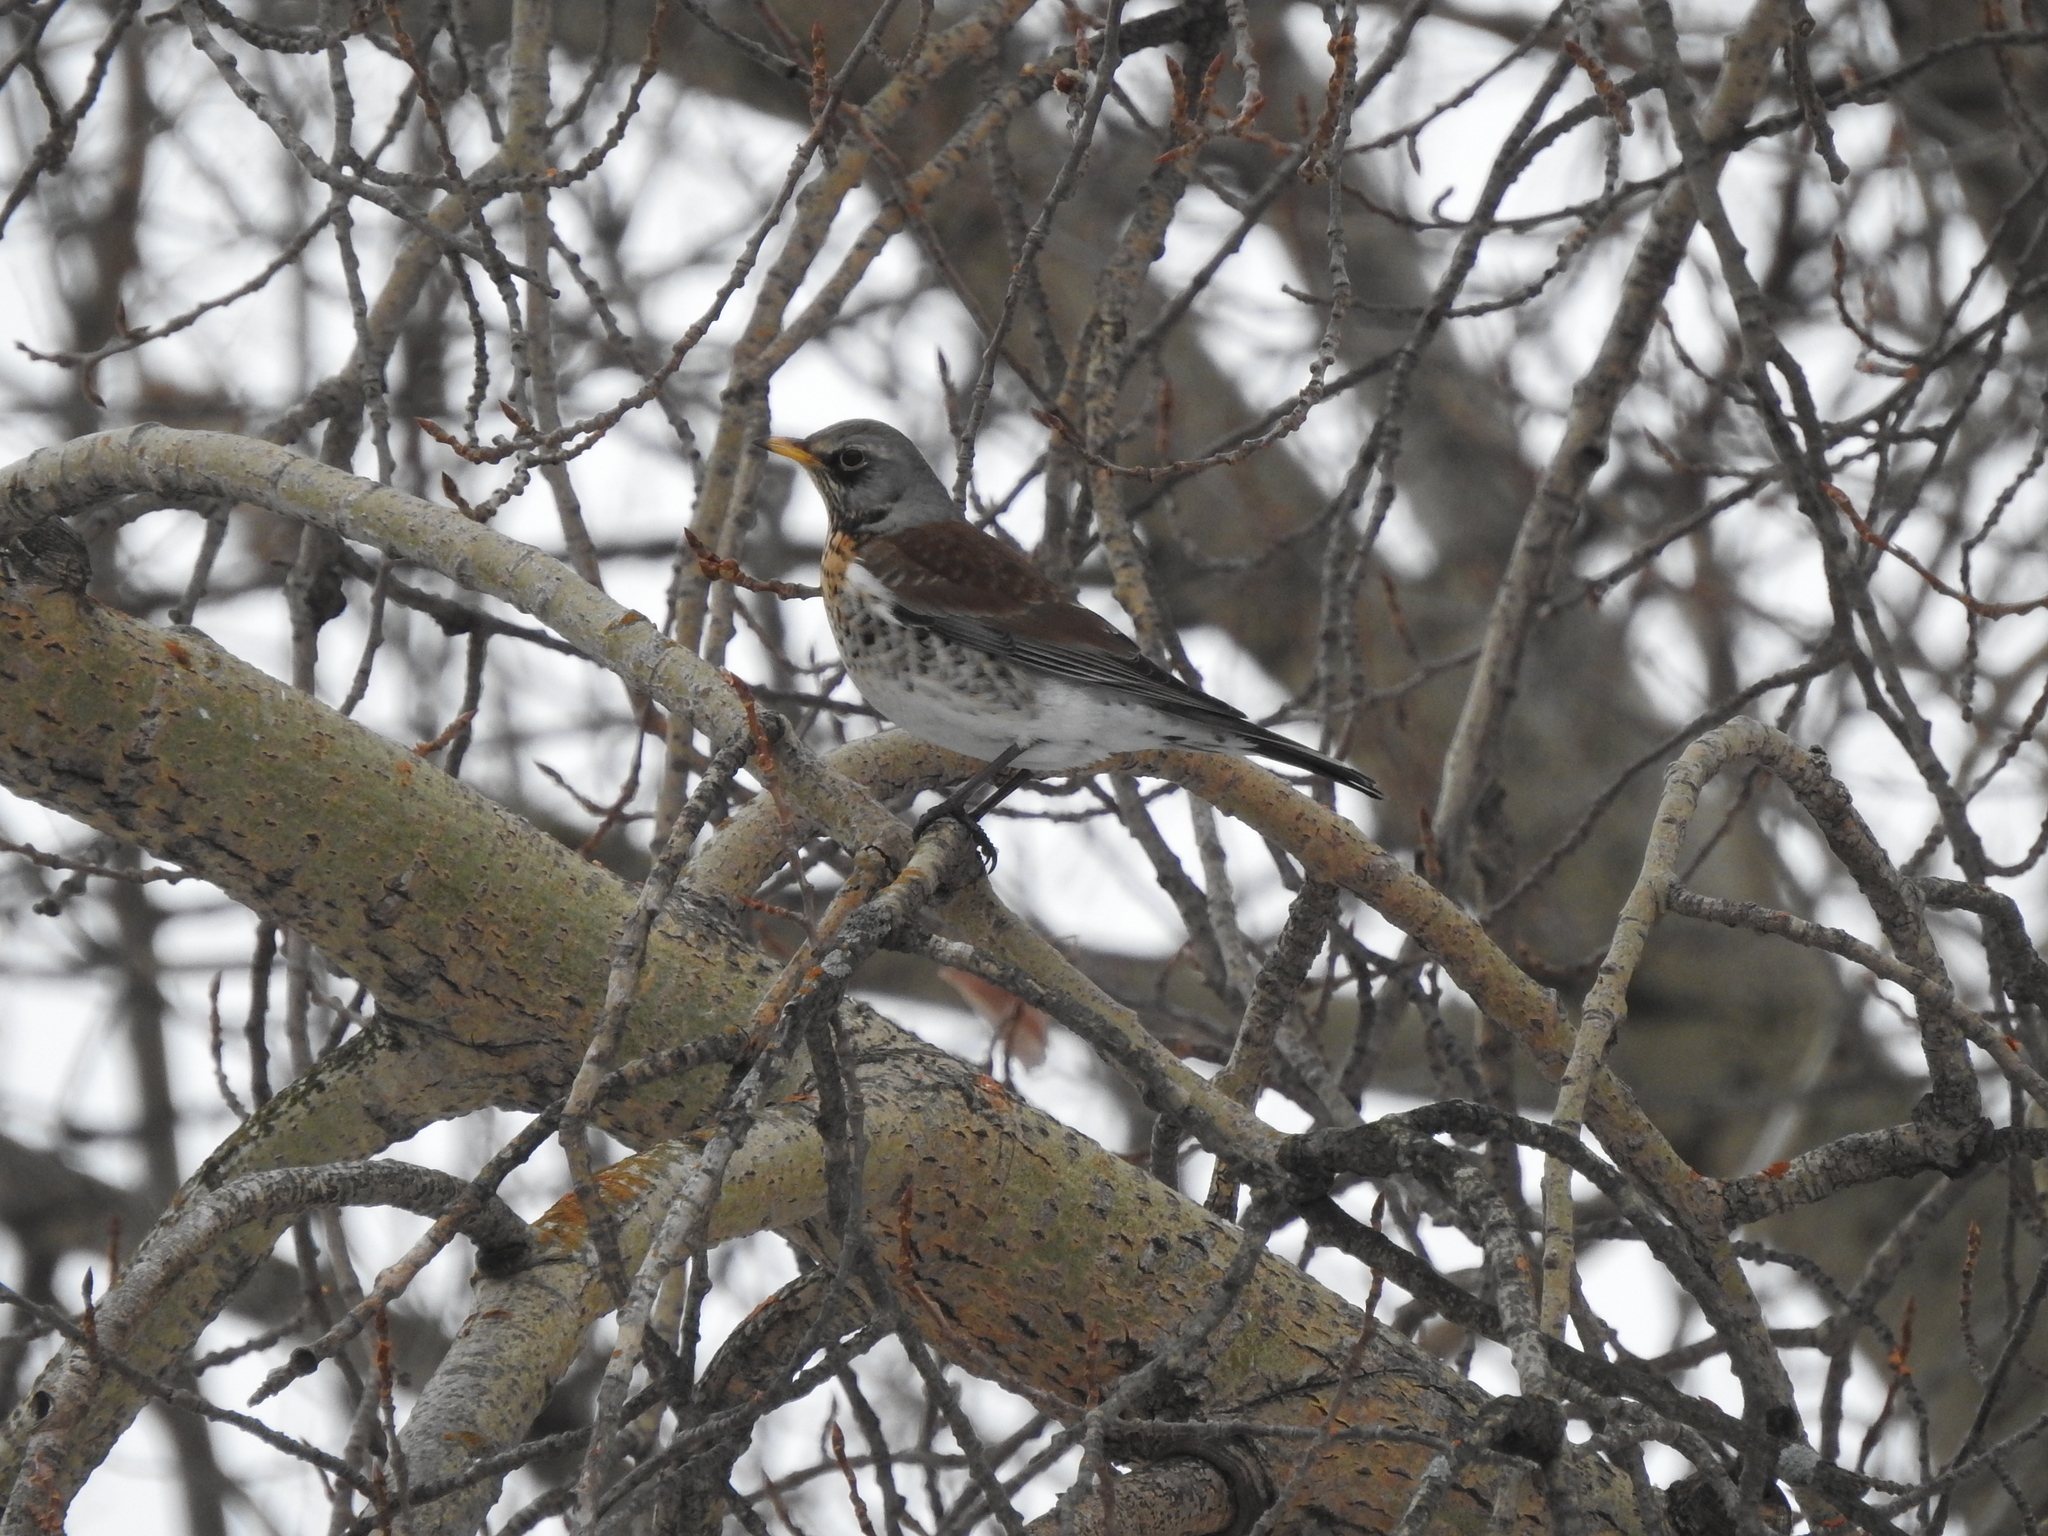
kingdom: Animalia
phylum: Chordata
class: Aves
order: Passeriformes
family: Turdidae
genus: Turdus
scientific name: Turdus pilaris
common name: Fieldfare
